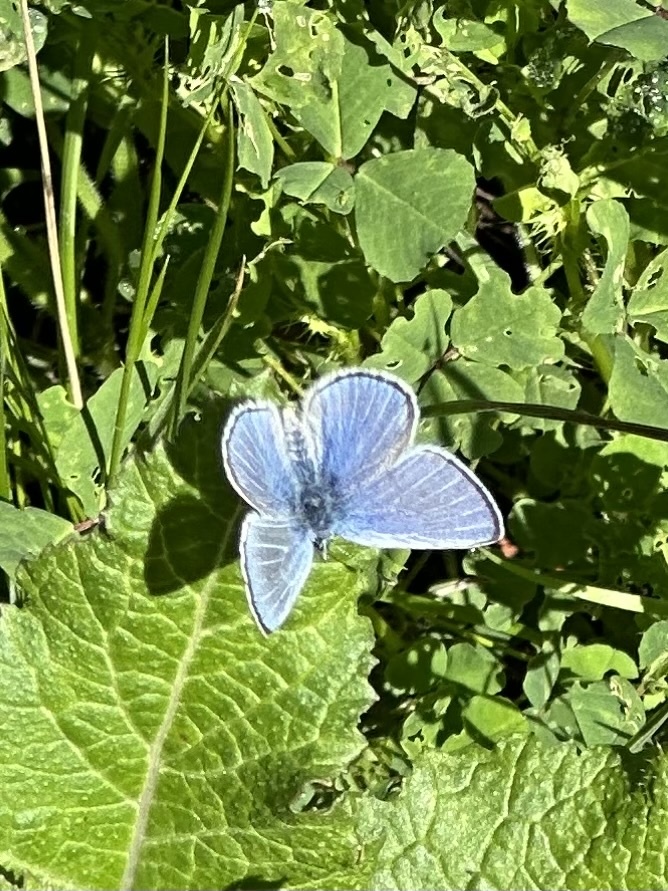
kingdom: Animalia
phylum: Arthropoda
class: Insecta
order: Lepidoptera
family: Lycaenidae
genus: Glaucopsyche
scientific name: Glaucopsyche lygdamus
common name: Silvery blue
